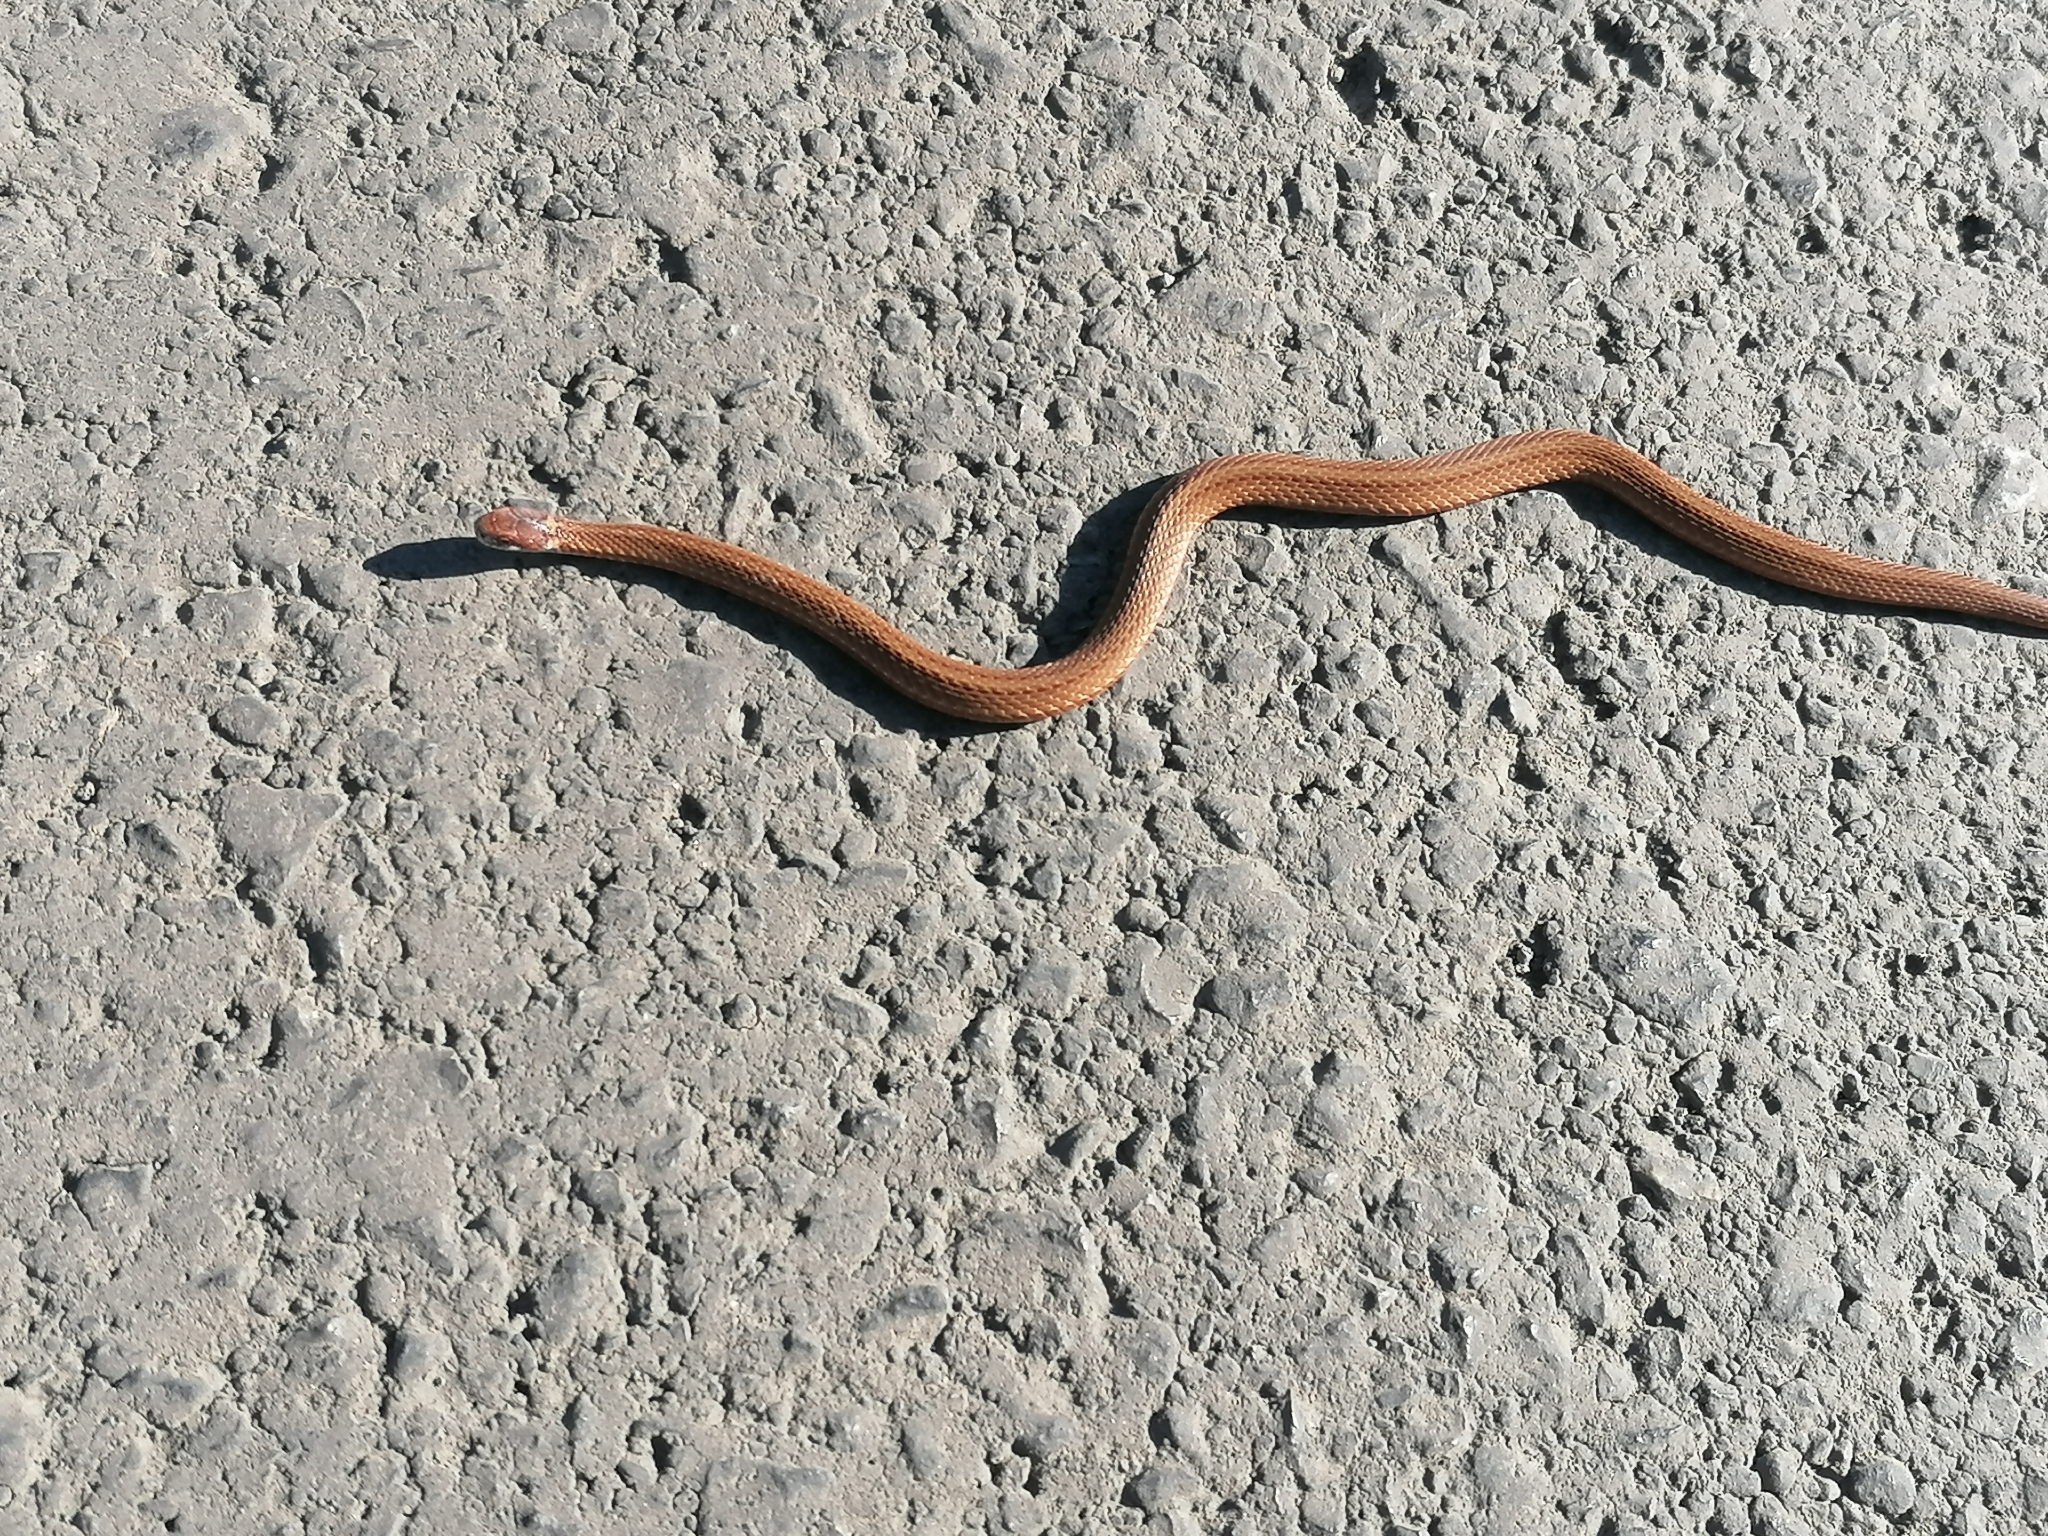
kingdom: Animalia
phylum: Chordata
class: Squamata
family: Colubridae
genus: Storeria
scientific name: Storeria occipitomaculata
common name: Redbelly snake
